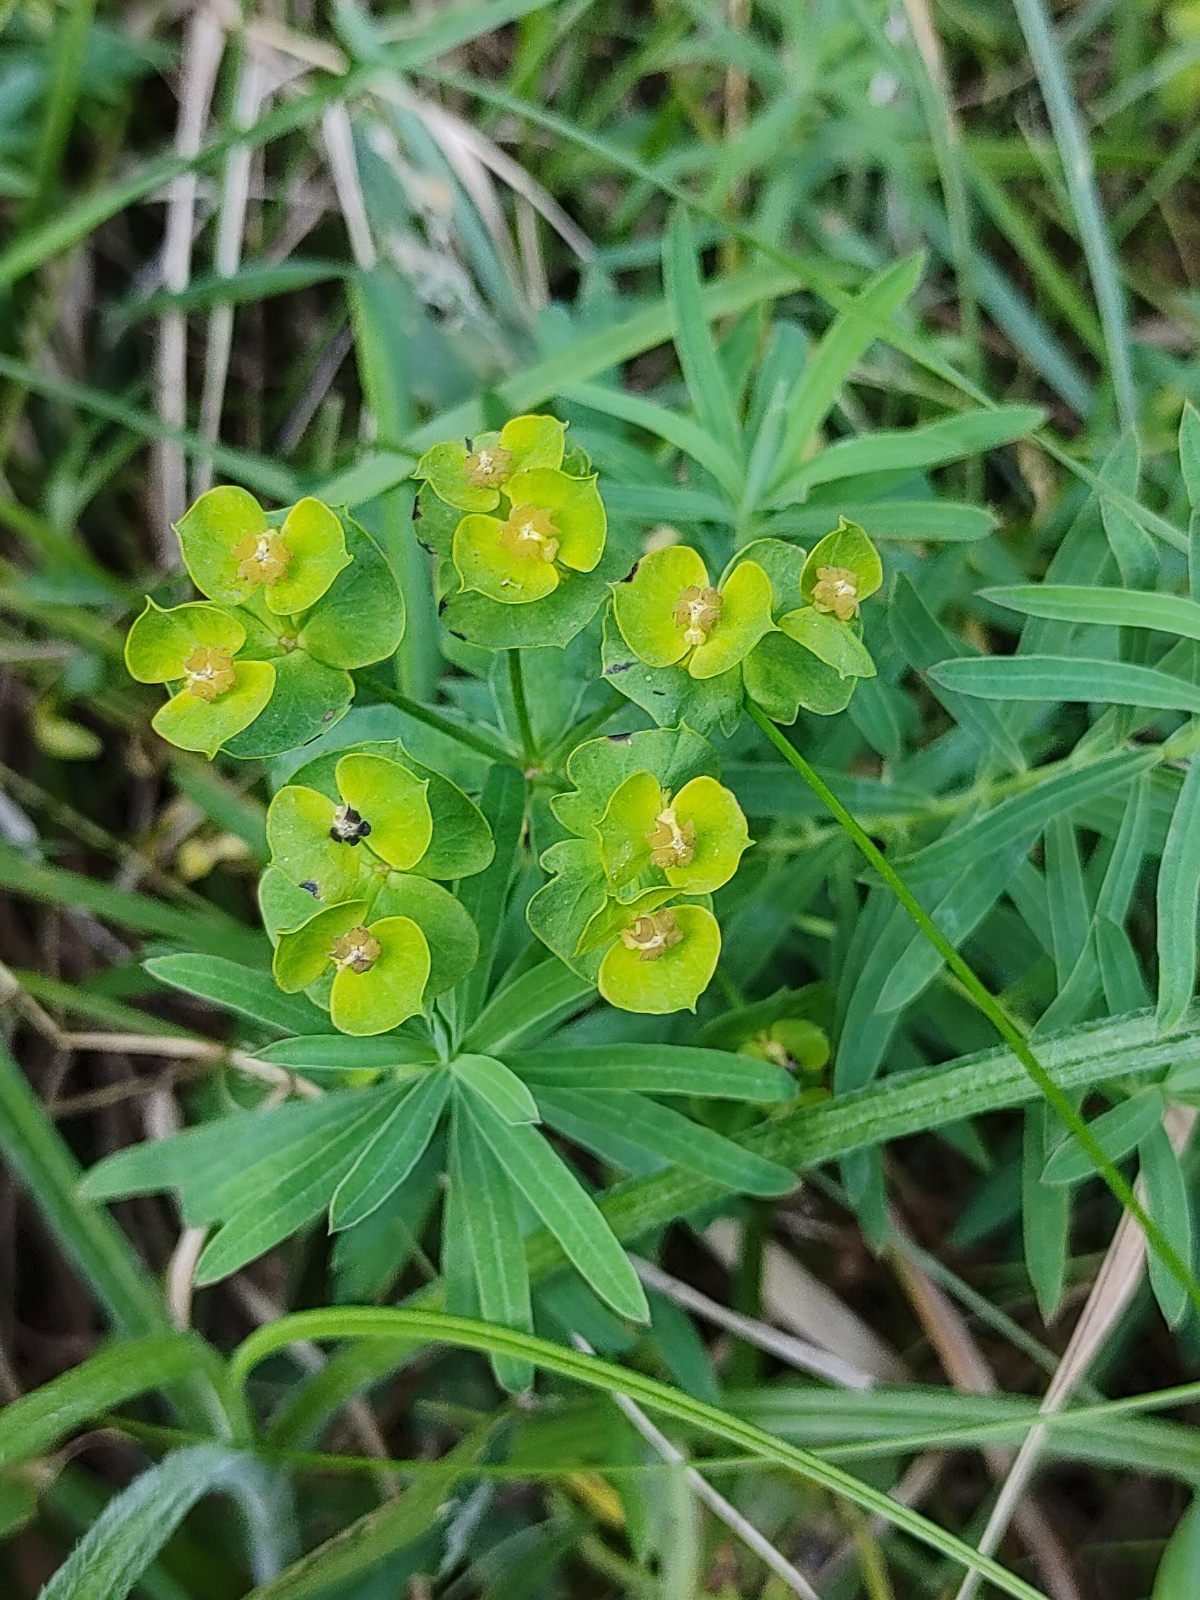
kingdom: Plantae
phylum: Tracheophyta
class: Magnoliopsida
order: Malpighiales
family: Euphorbiaceae
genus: Euphorbia
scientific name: Euphorbia esula
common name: Leafy spurge
